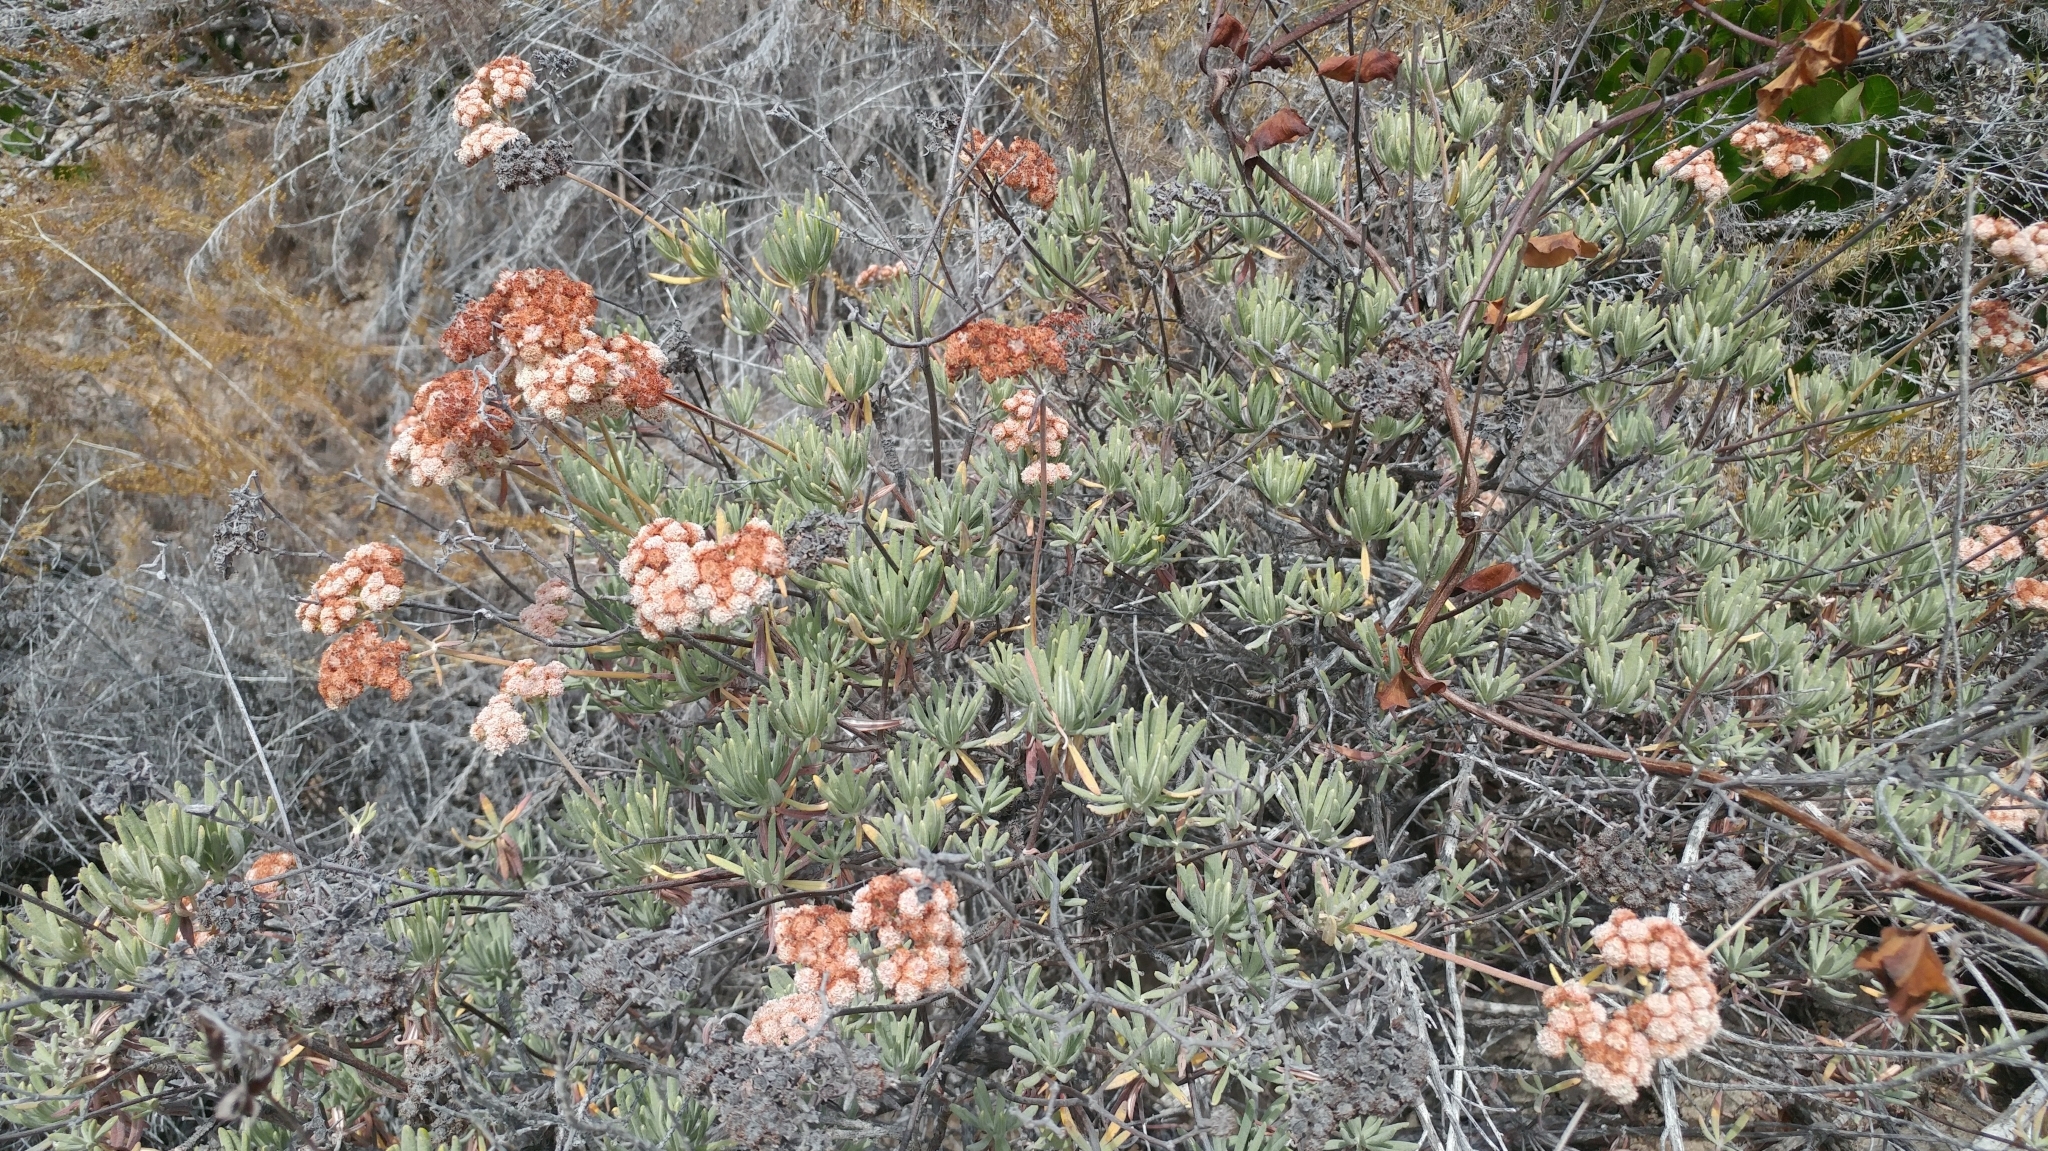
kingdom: Plantae
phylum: Tracheophyta
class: Magnoliopsida
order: Caryophyllales
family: Polygonaceae
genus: Eriogonum
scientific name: Eriogonum arborescens
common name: Island buckwheat
